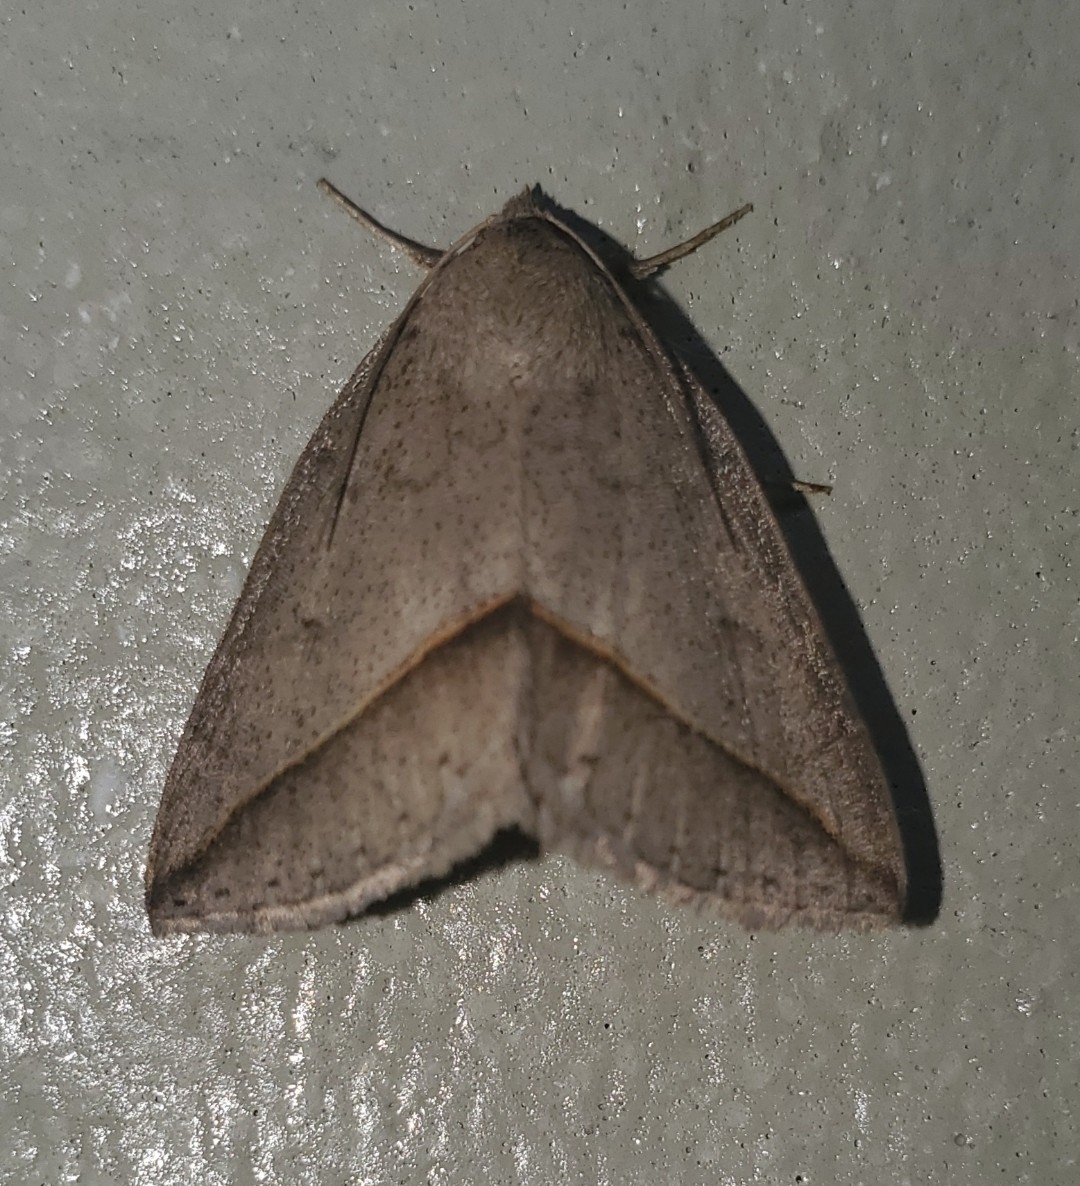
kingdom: Animalia
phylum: Arthropoda
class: Insecta
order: Lepidoptera
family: Erebidae
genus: Argyrostrotis
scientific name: Argyrostrotis flavistriaria
